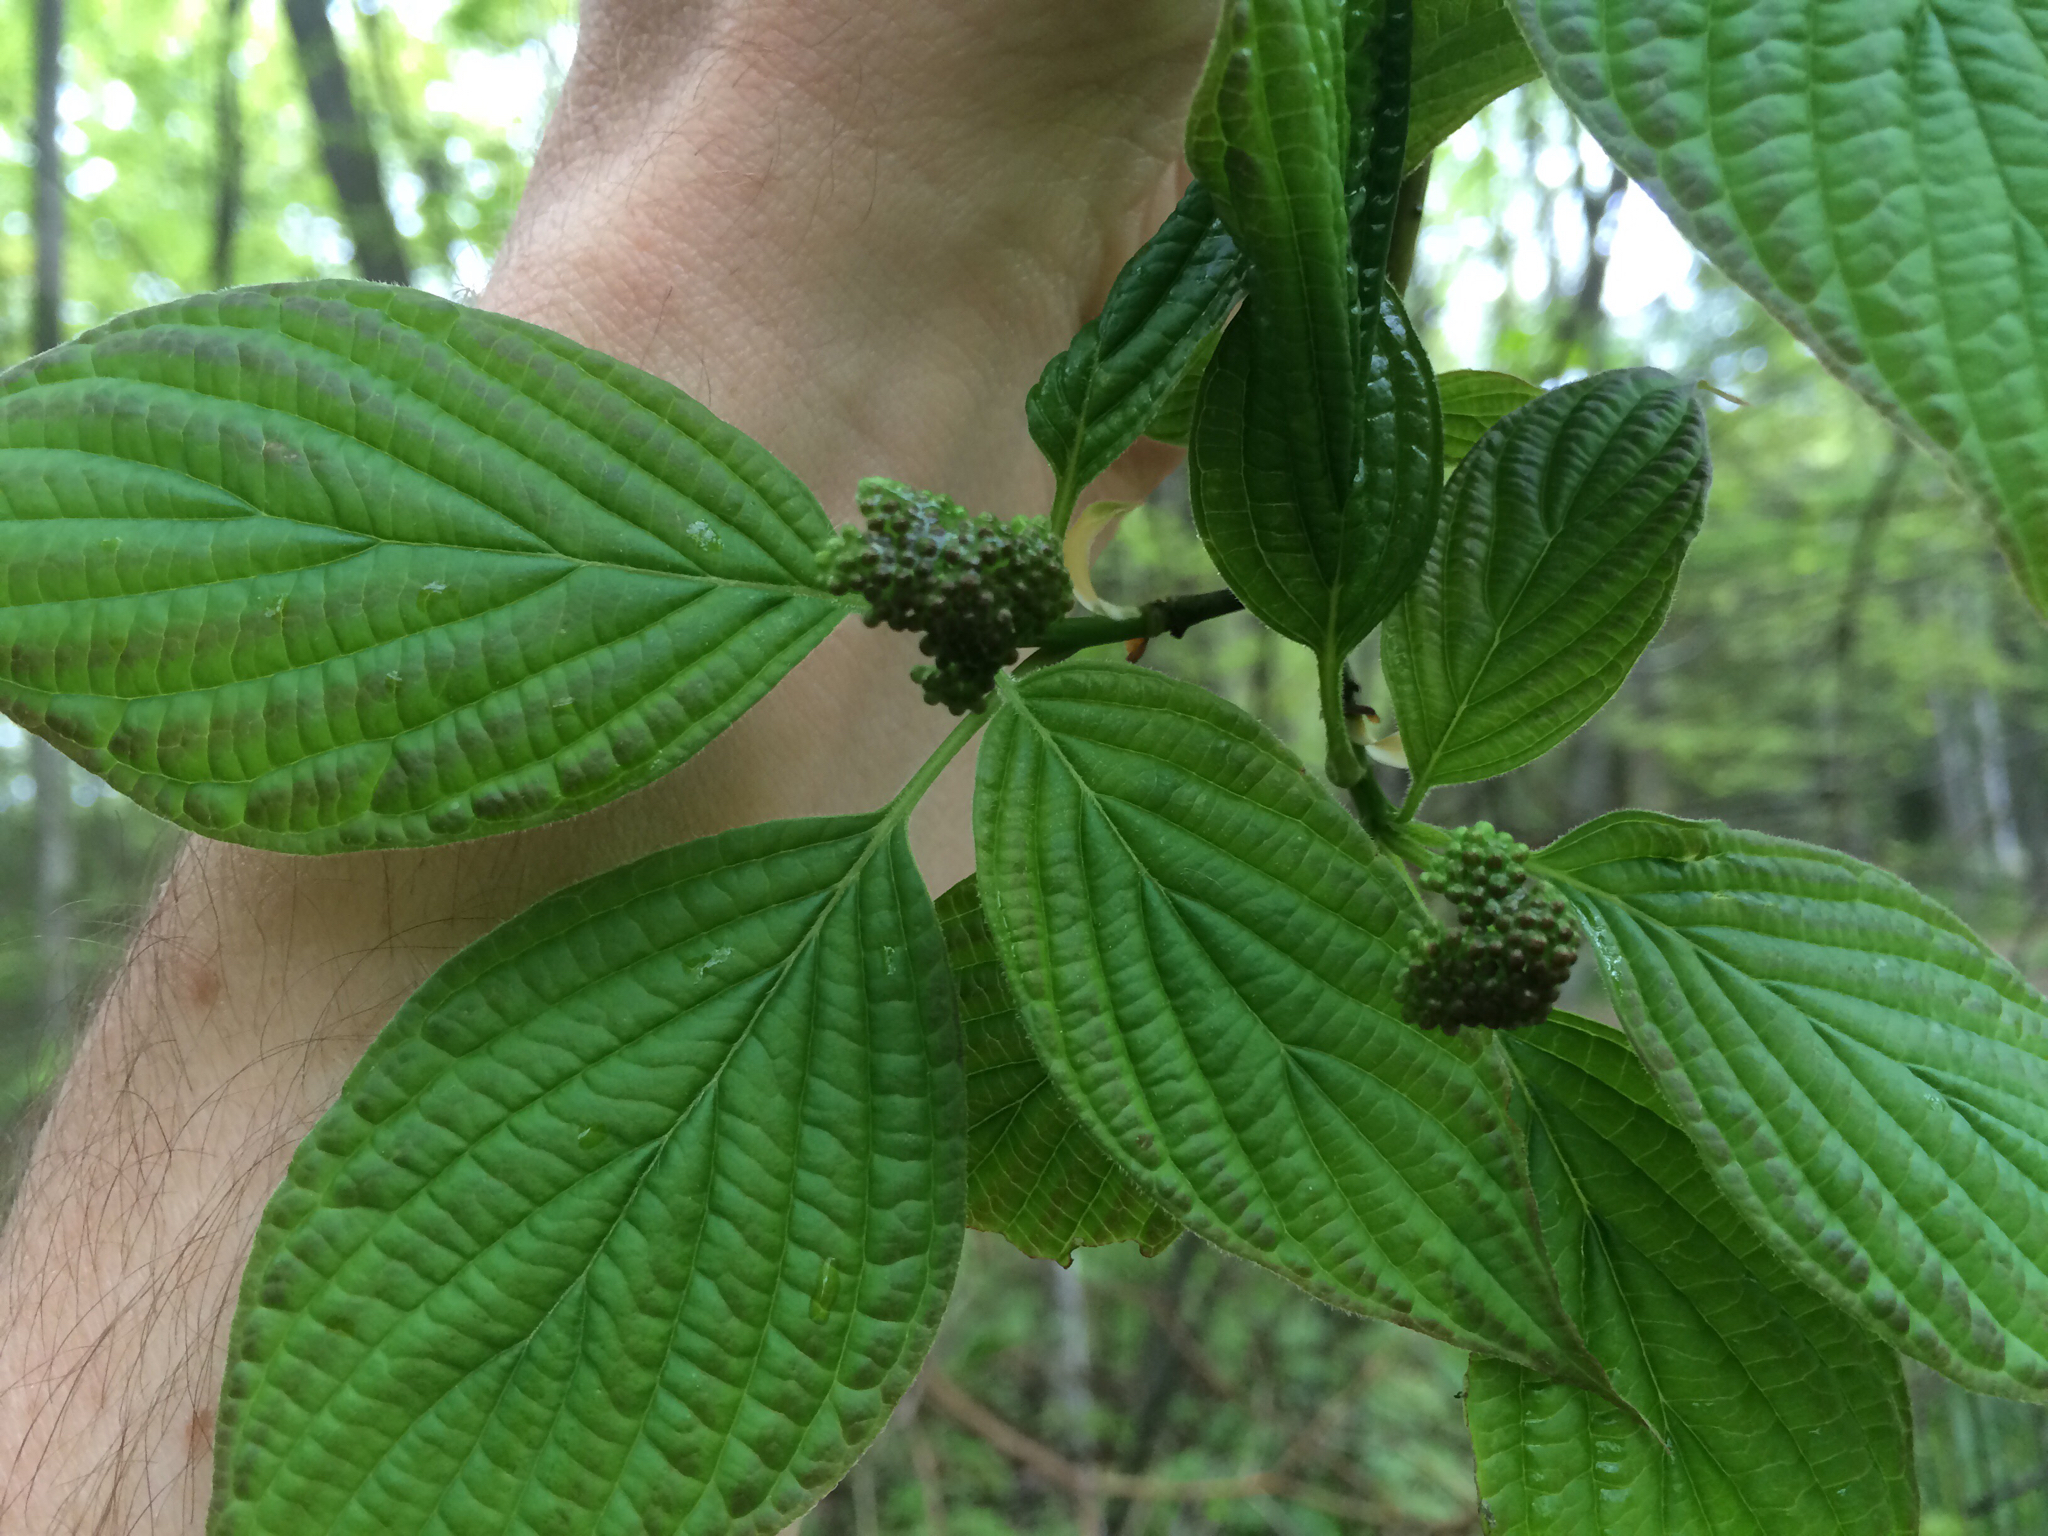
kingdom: Plantae
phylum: Tracheophyta
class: Magnoliopsida
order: Cornales
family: Cornaceae
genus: Cornus
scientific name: Cornus alternifolia
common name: Pagoda dogwood
